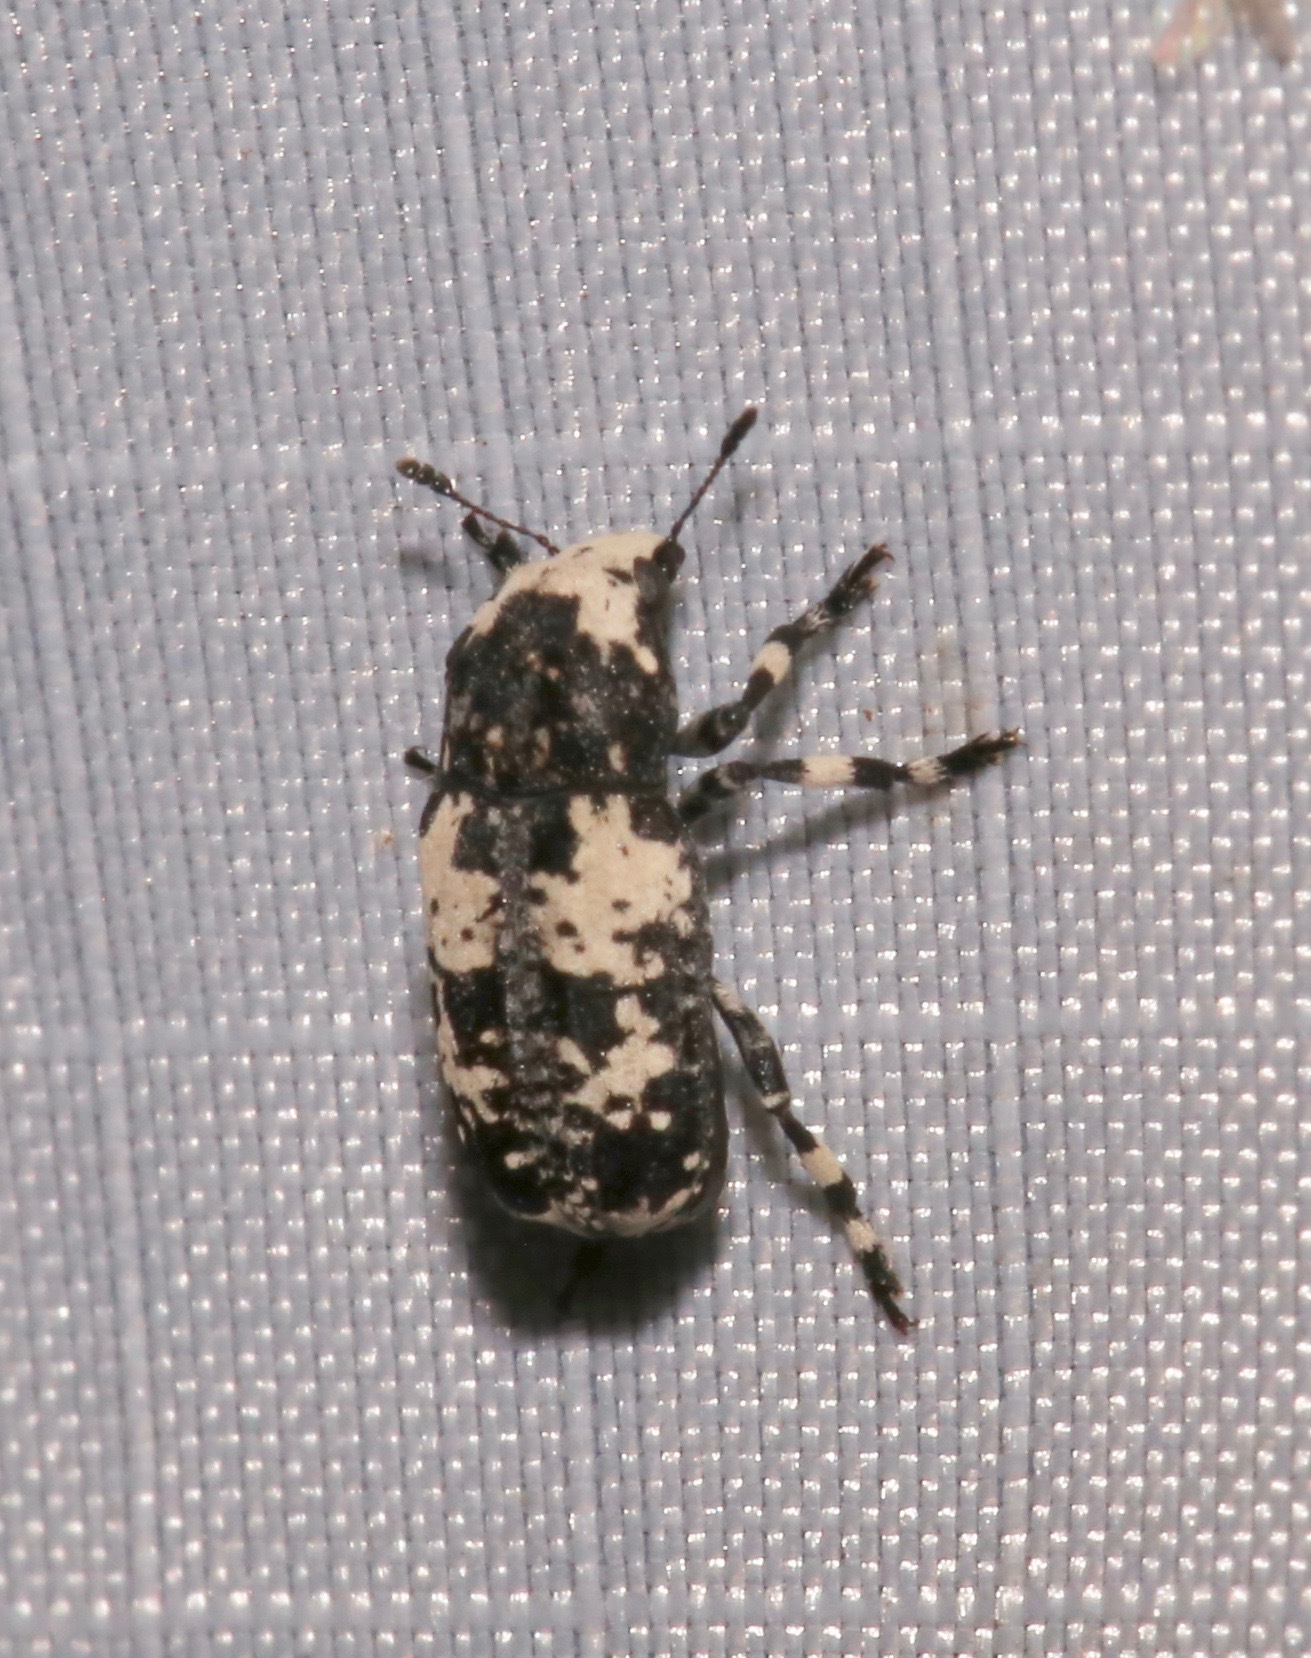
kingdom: Animalia
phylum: Arthropoda
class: Insecta
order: Coleoptera
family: Anthribidae
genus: Euparius
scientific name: Euparius lugubris
